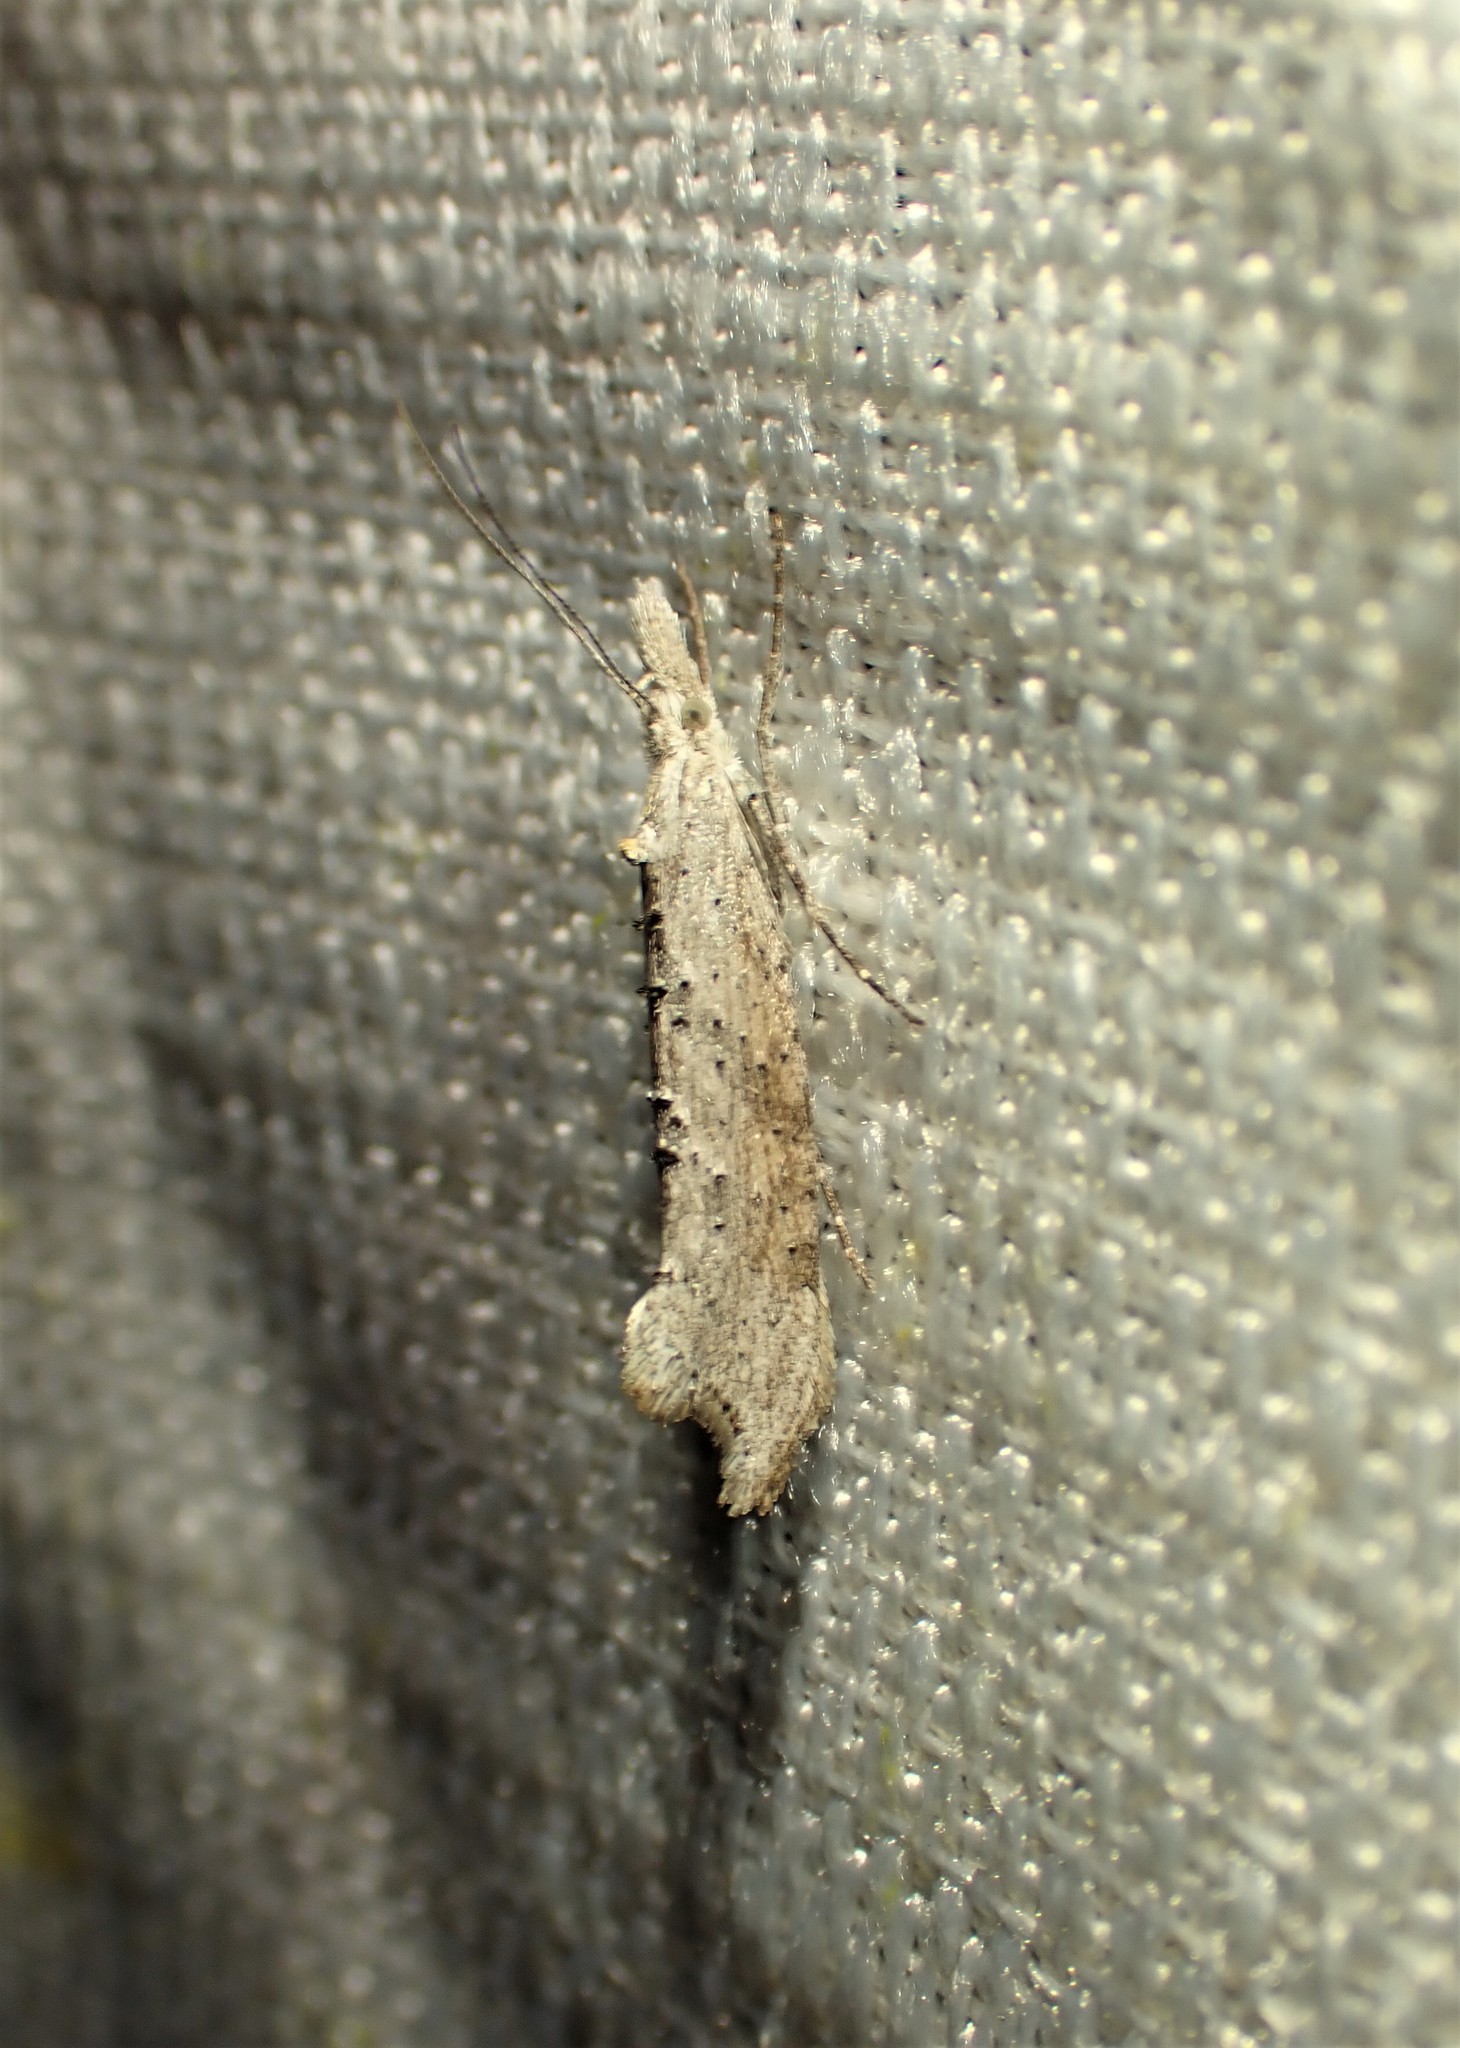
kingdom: Animalia
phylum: Arthropoda
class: Insecta
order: Lepidoptera
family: Ypsolophidae
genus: Ypsolopha
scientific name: Ypsolopha falciferella
